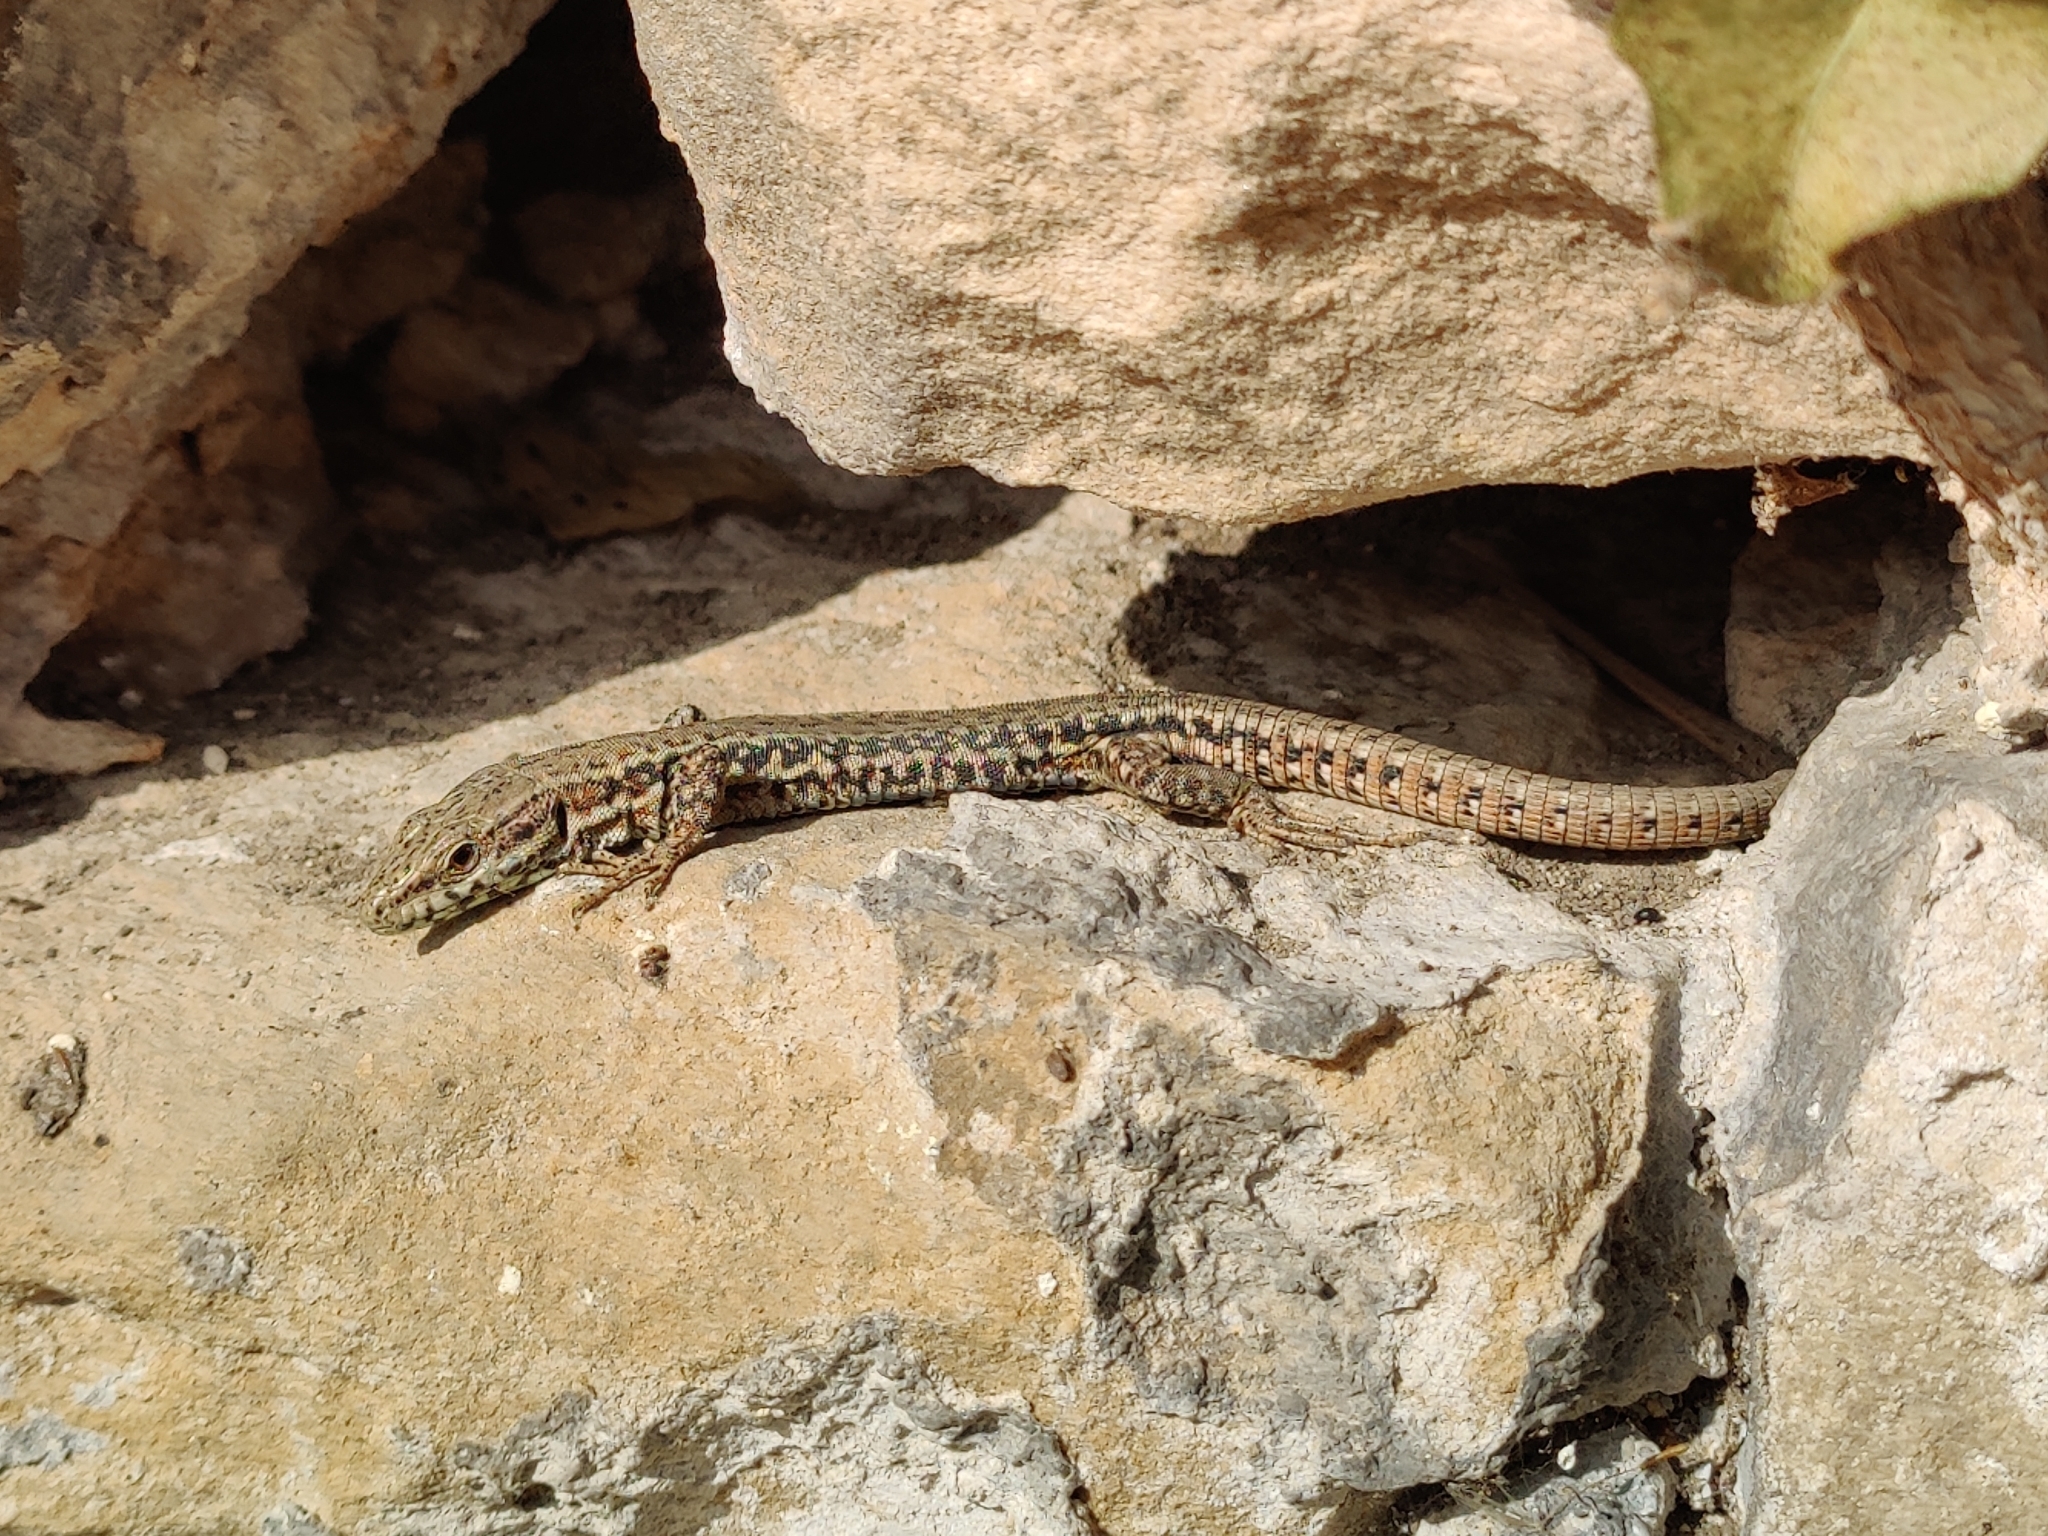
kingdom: Animalia
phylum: Chordata
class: Squamata
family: Lacertidae
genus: Podarcis
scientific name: Podarcis muralis
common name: Common wall lizard
